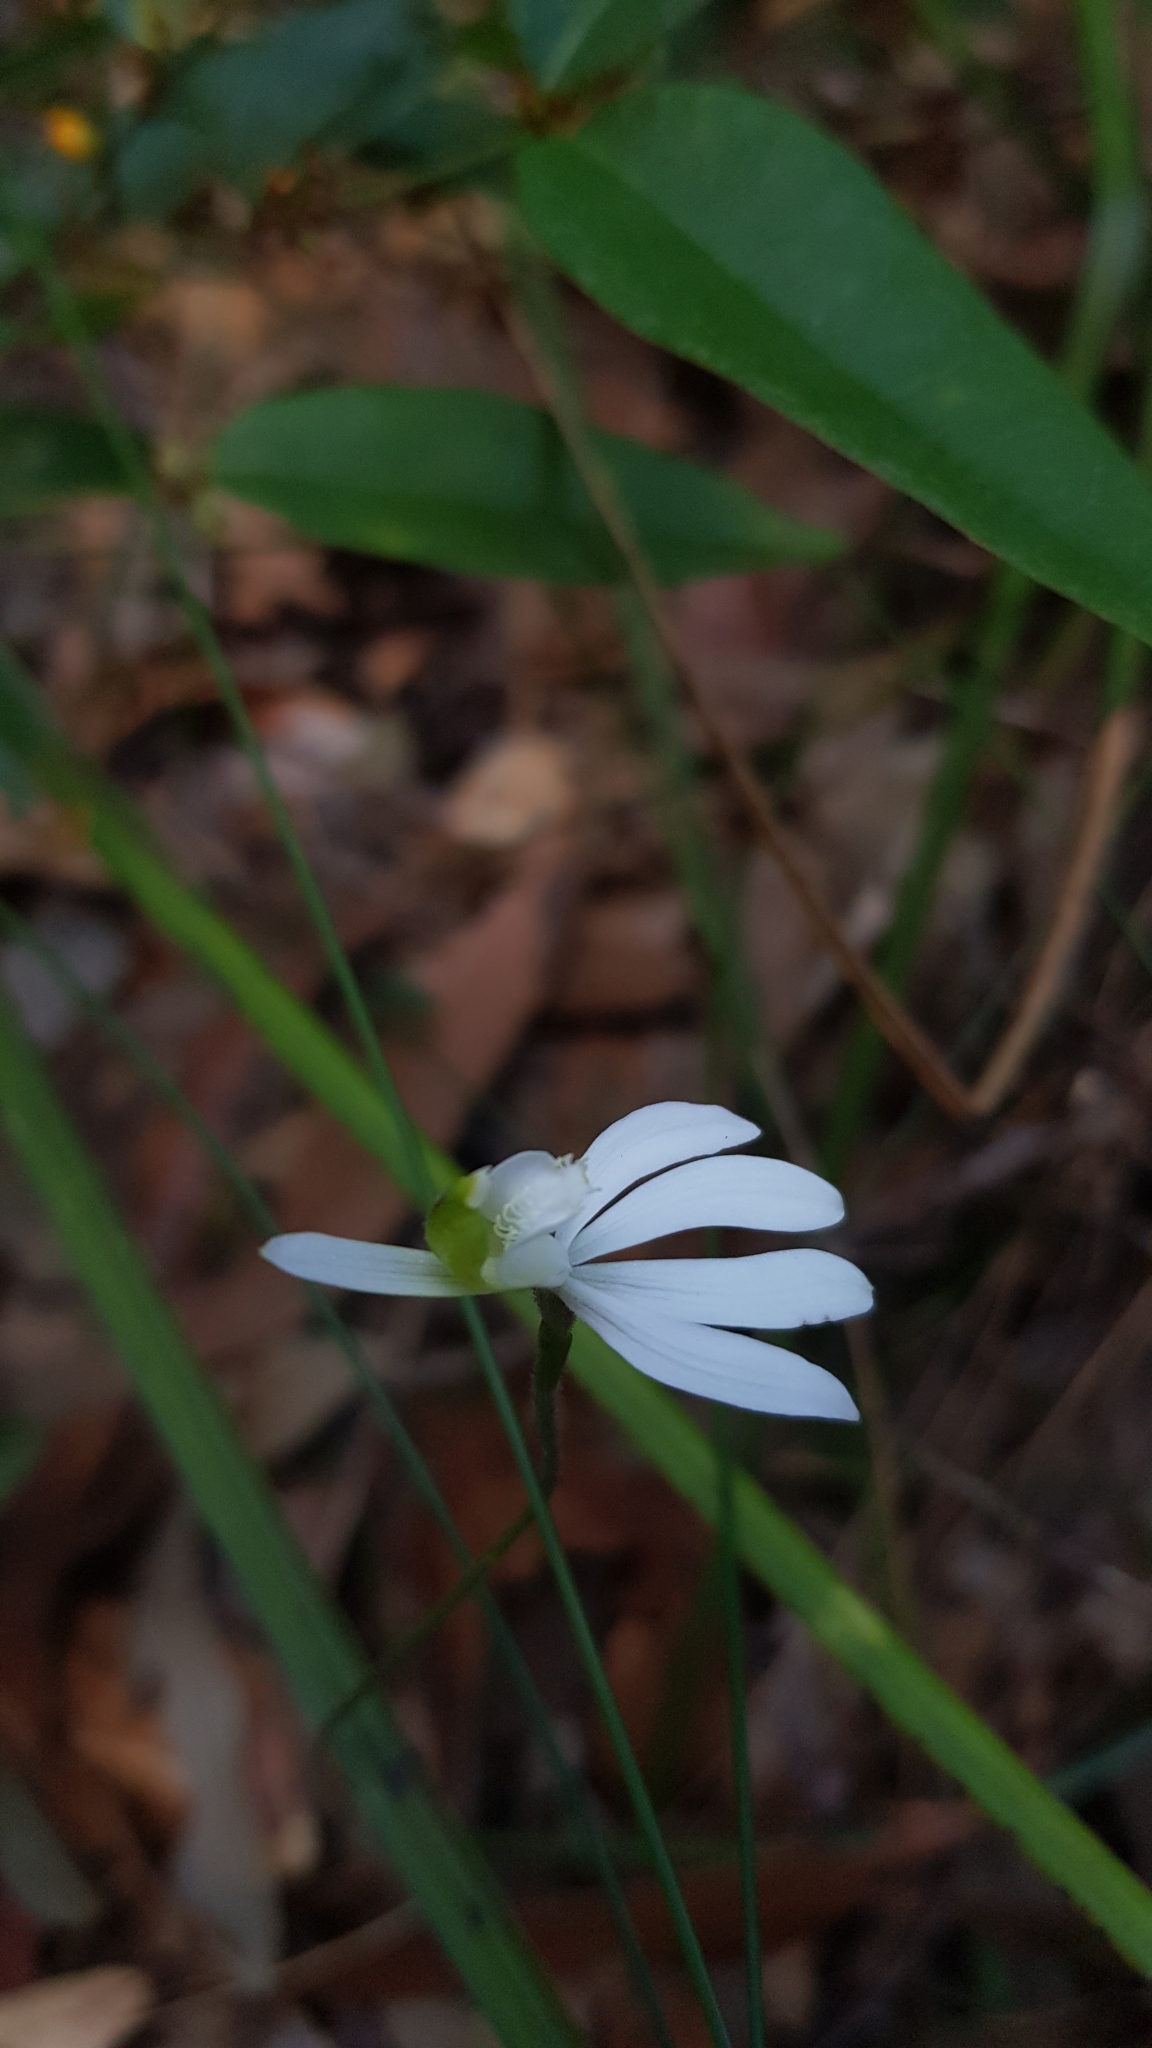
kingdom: Plantae
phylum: Tracheophyta
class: Liliopsida
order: Asparagales
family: Orchidaceae
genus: Caladenia
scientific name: Caladenia catenata
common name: White caladenia
